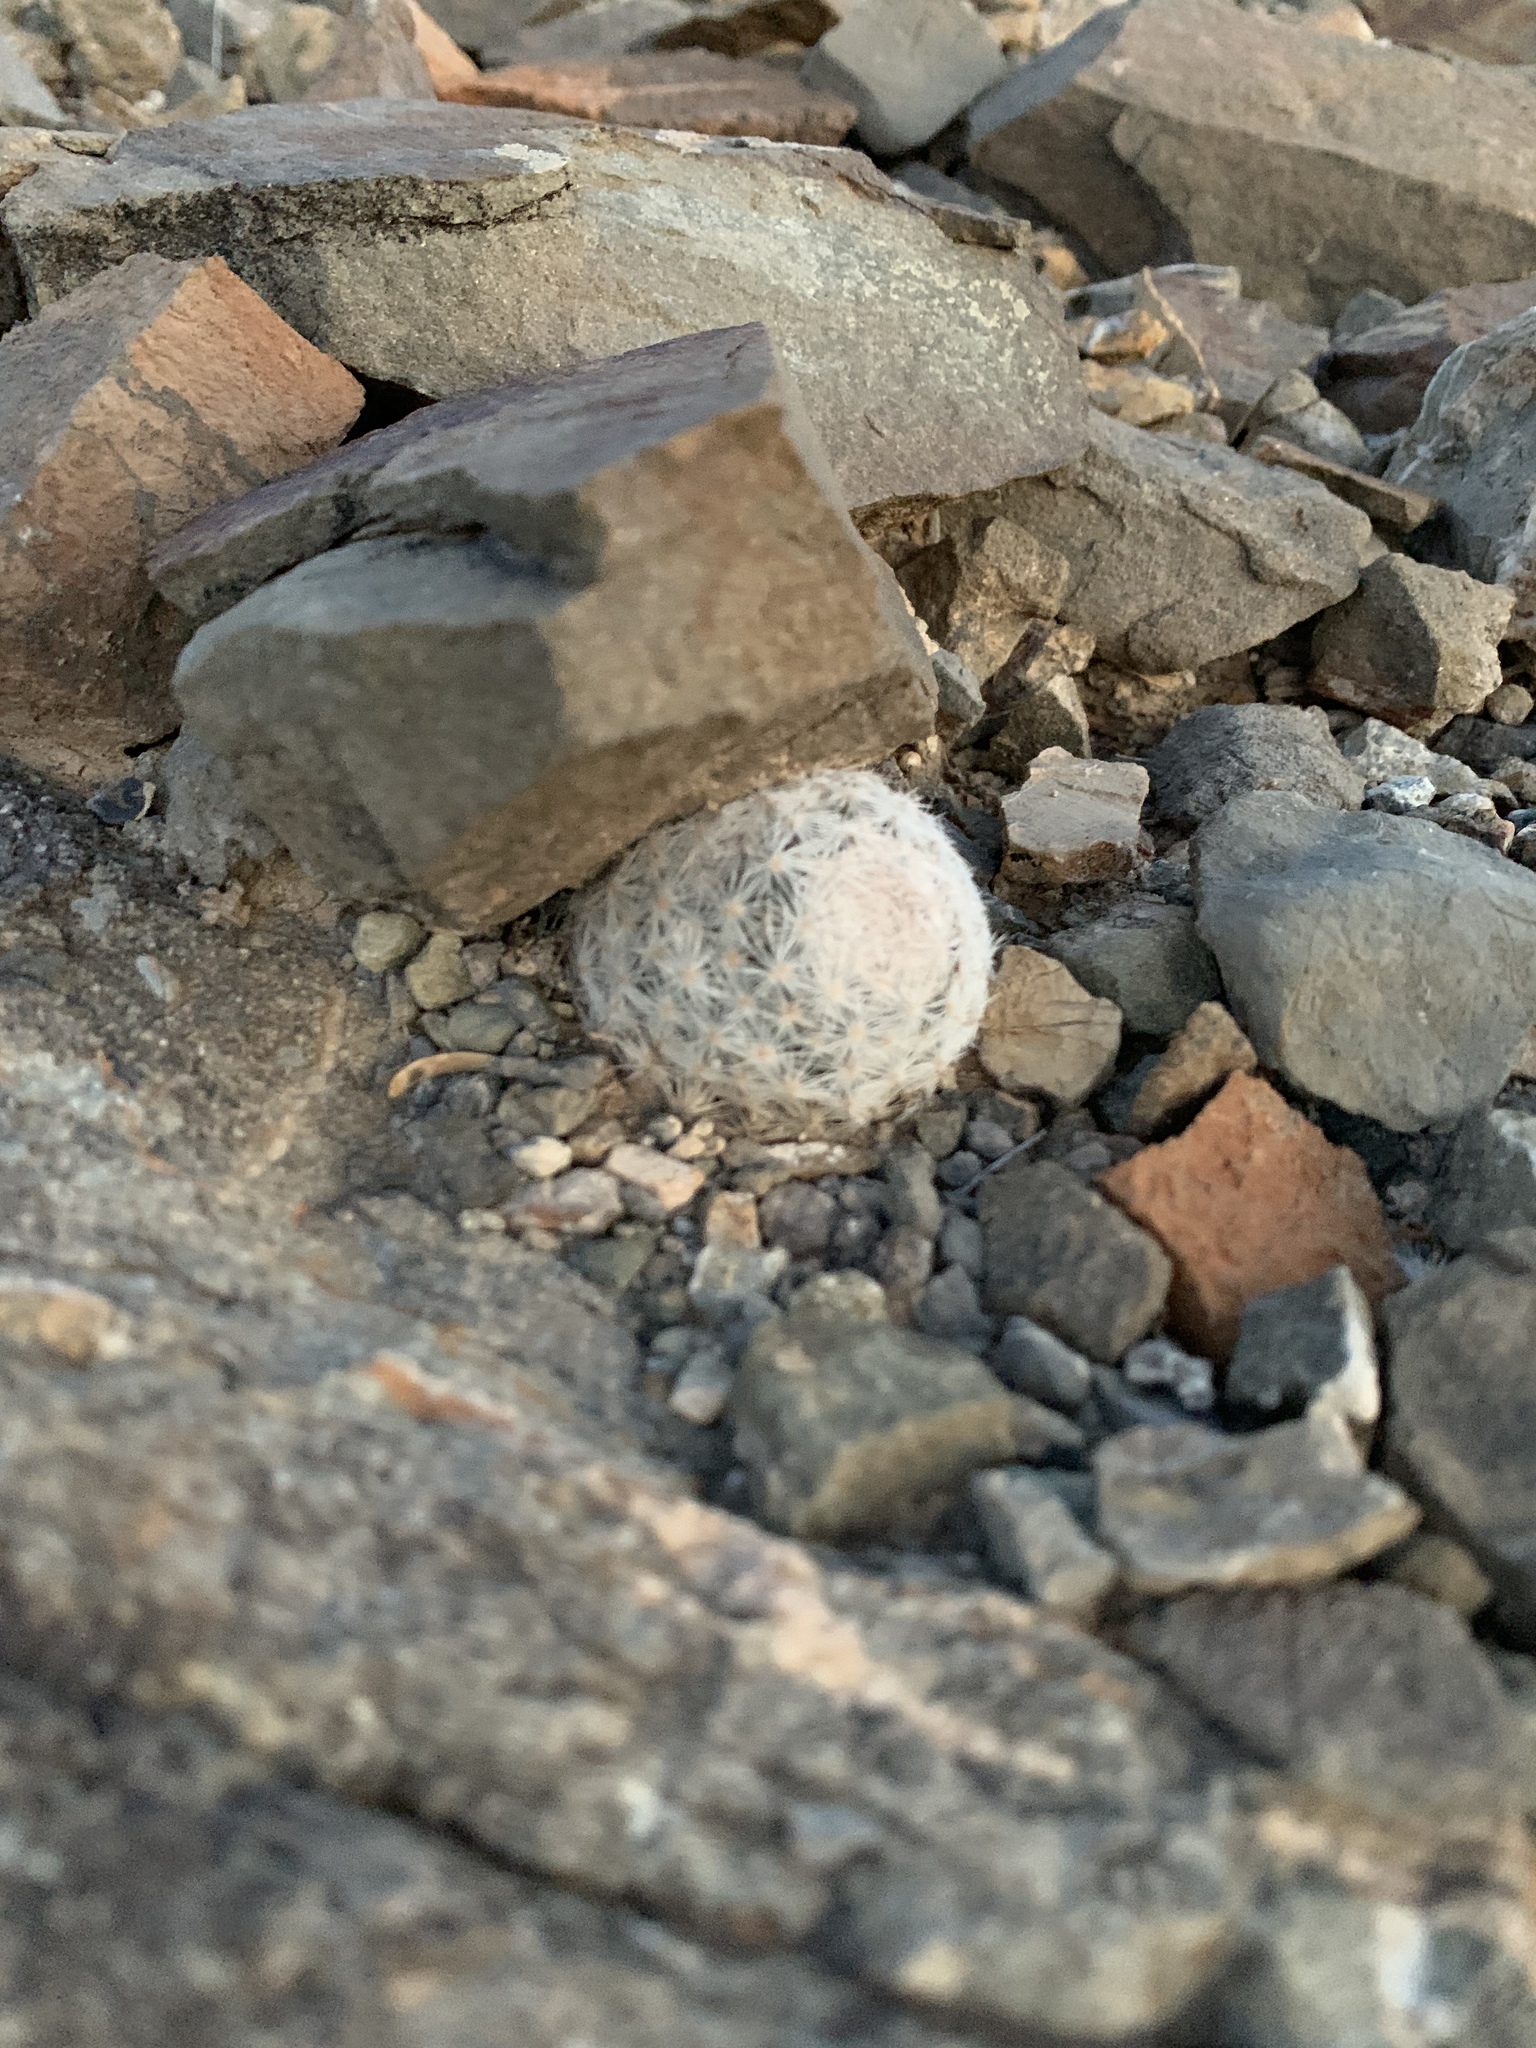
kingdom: Plantae
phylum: Tracheophyta
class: Magnoliopsida
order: Caryophyllales
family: Cactaceae
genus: Mammillaria
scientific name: Mammillaria lasiacantha
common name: Lace-spine nipple cactus
